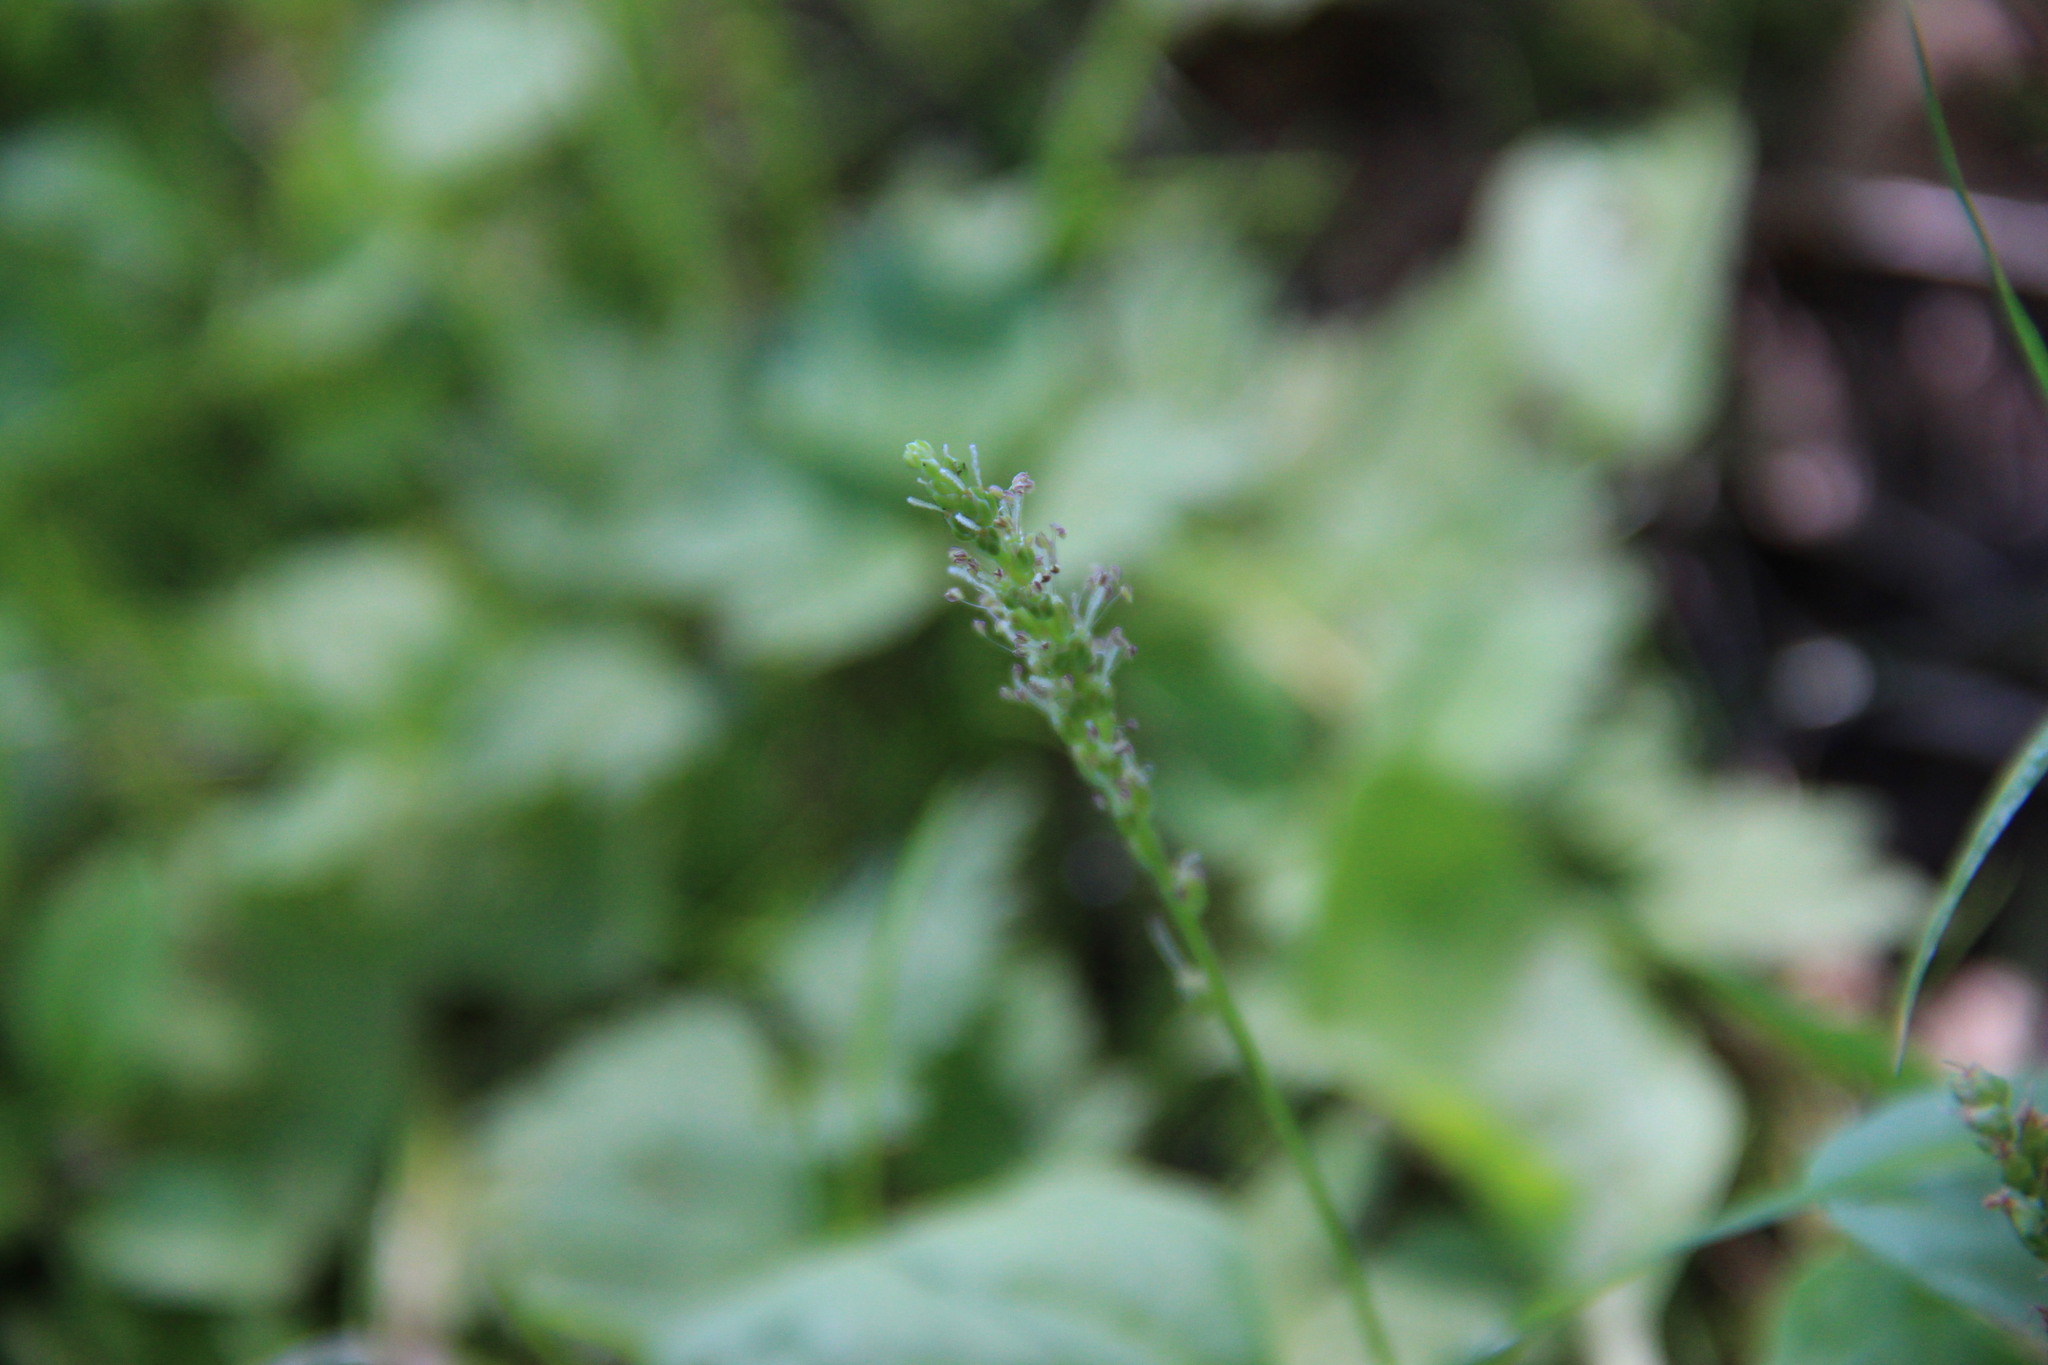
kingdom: Plantae
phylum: Tracheophyta
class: Magnoliopsida
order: Lamiales
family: Plantaginaceae
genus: Plantago
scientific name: Plantago major
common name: Common plantain
